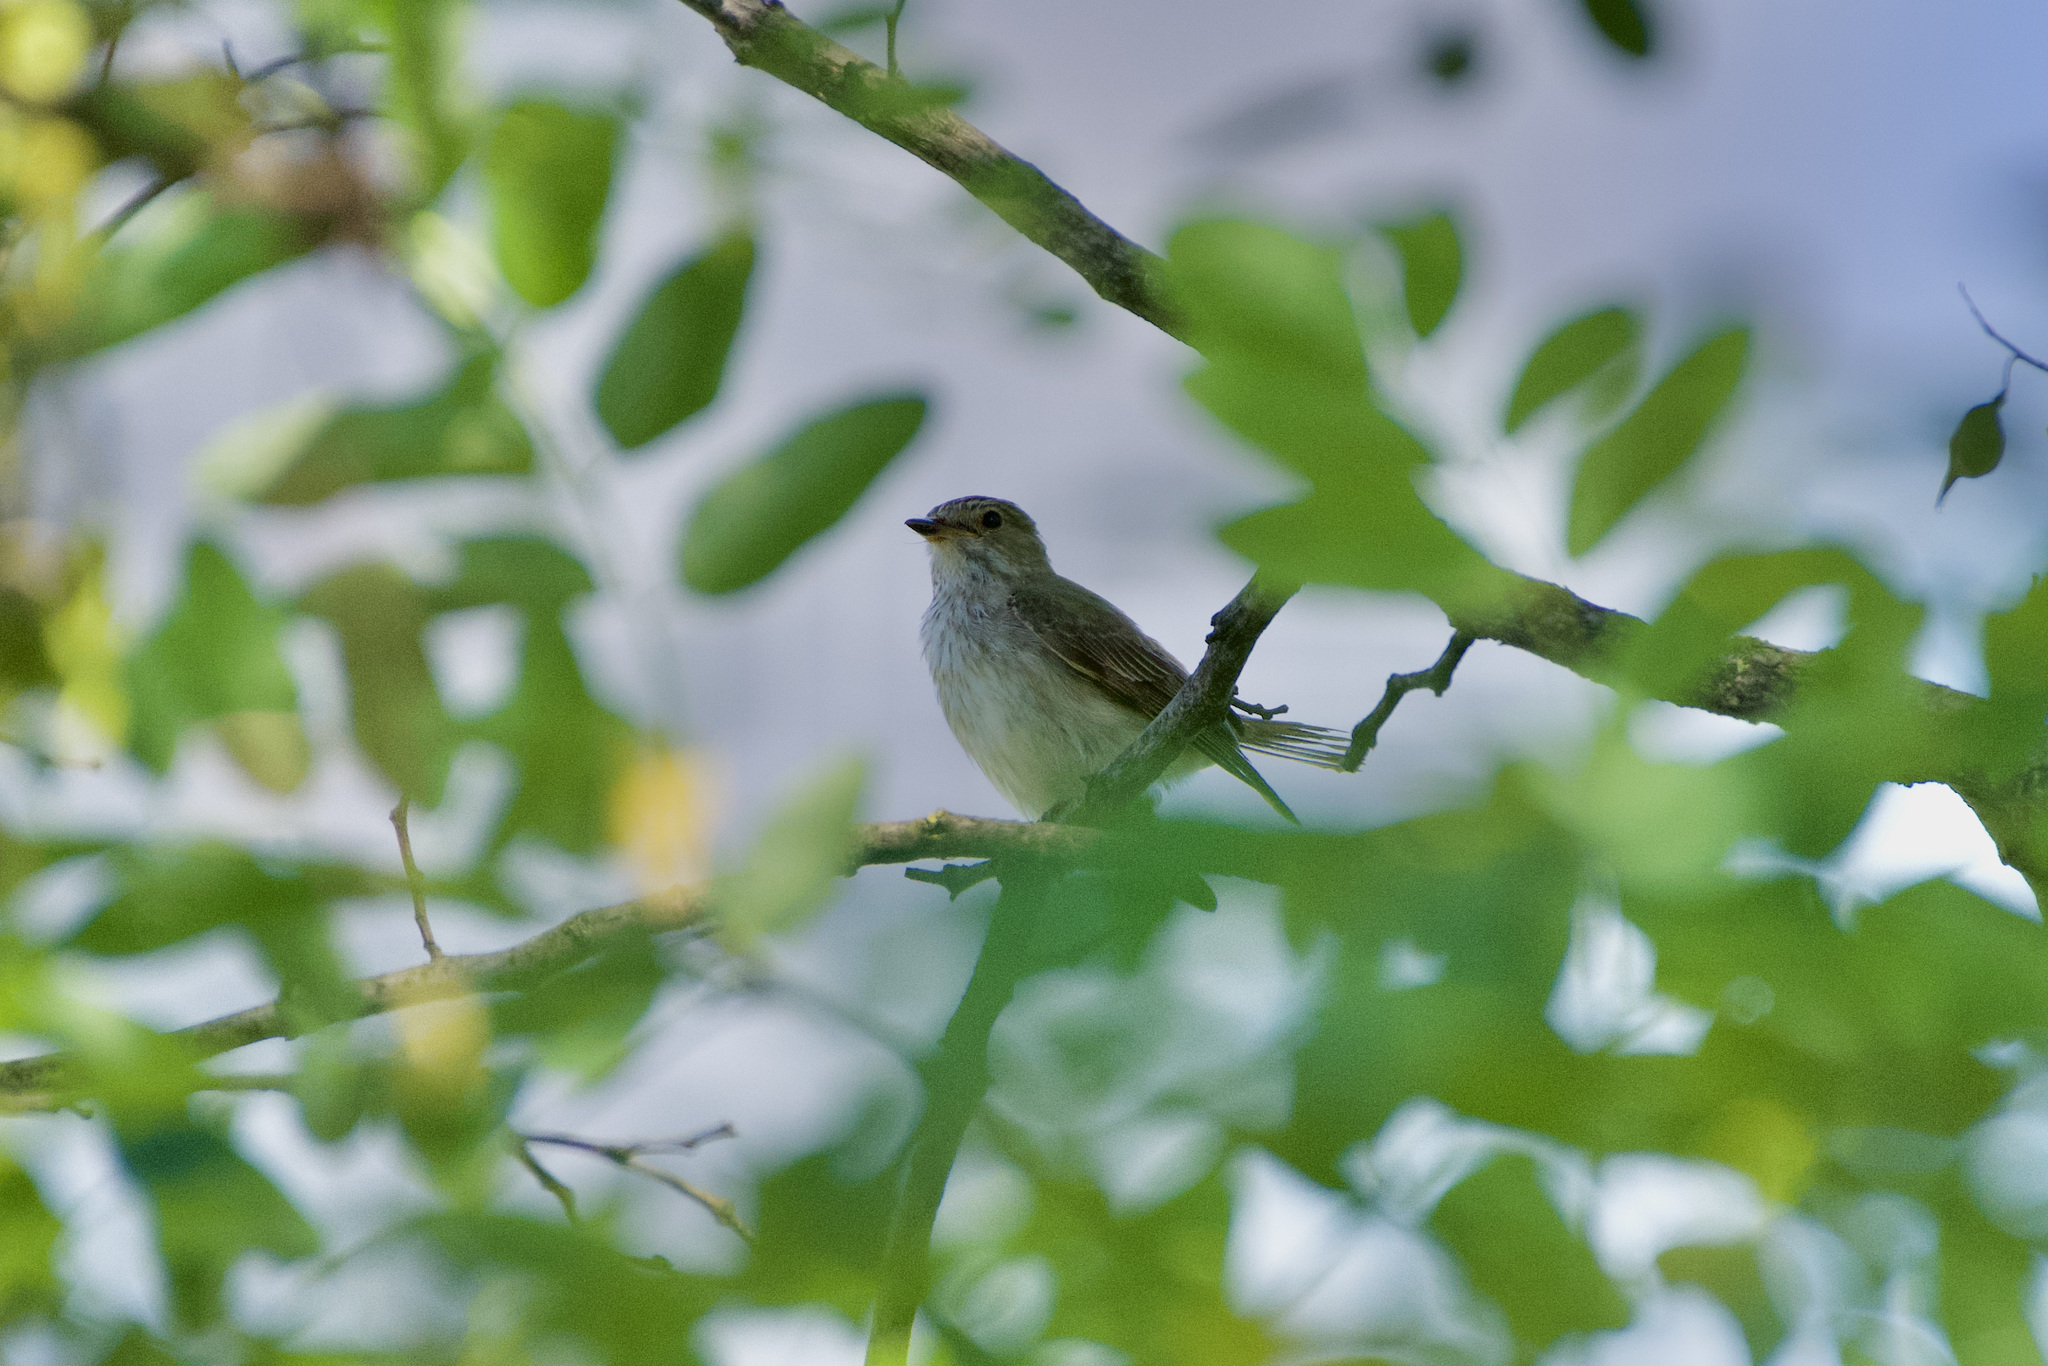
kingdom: Animalia
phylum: Chordata
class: Aves
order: Passeriformes
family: Muscicapidae
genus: Muscicapa
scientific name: Muscicapa striata
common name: Spotted flycatcher
